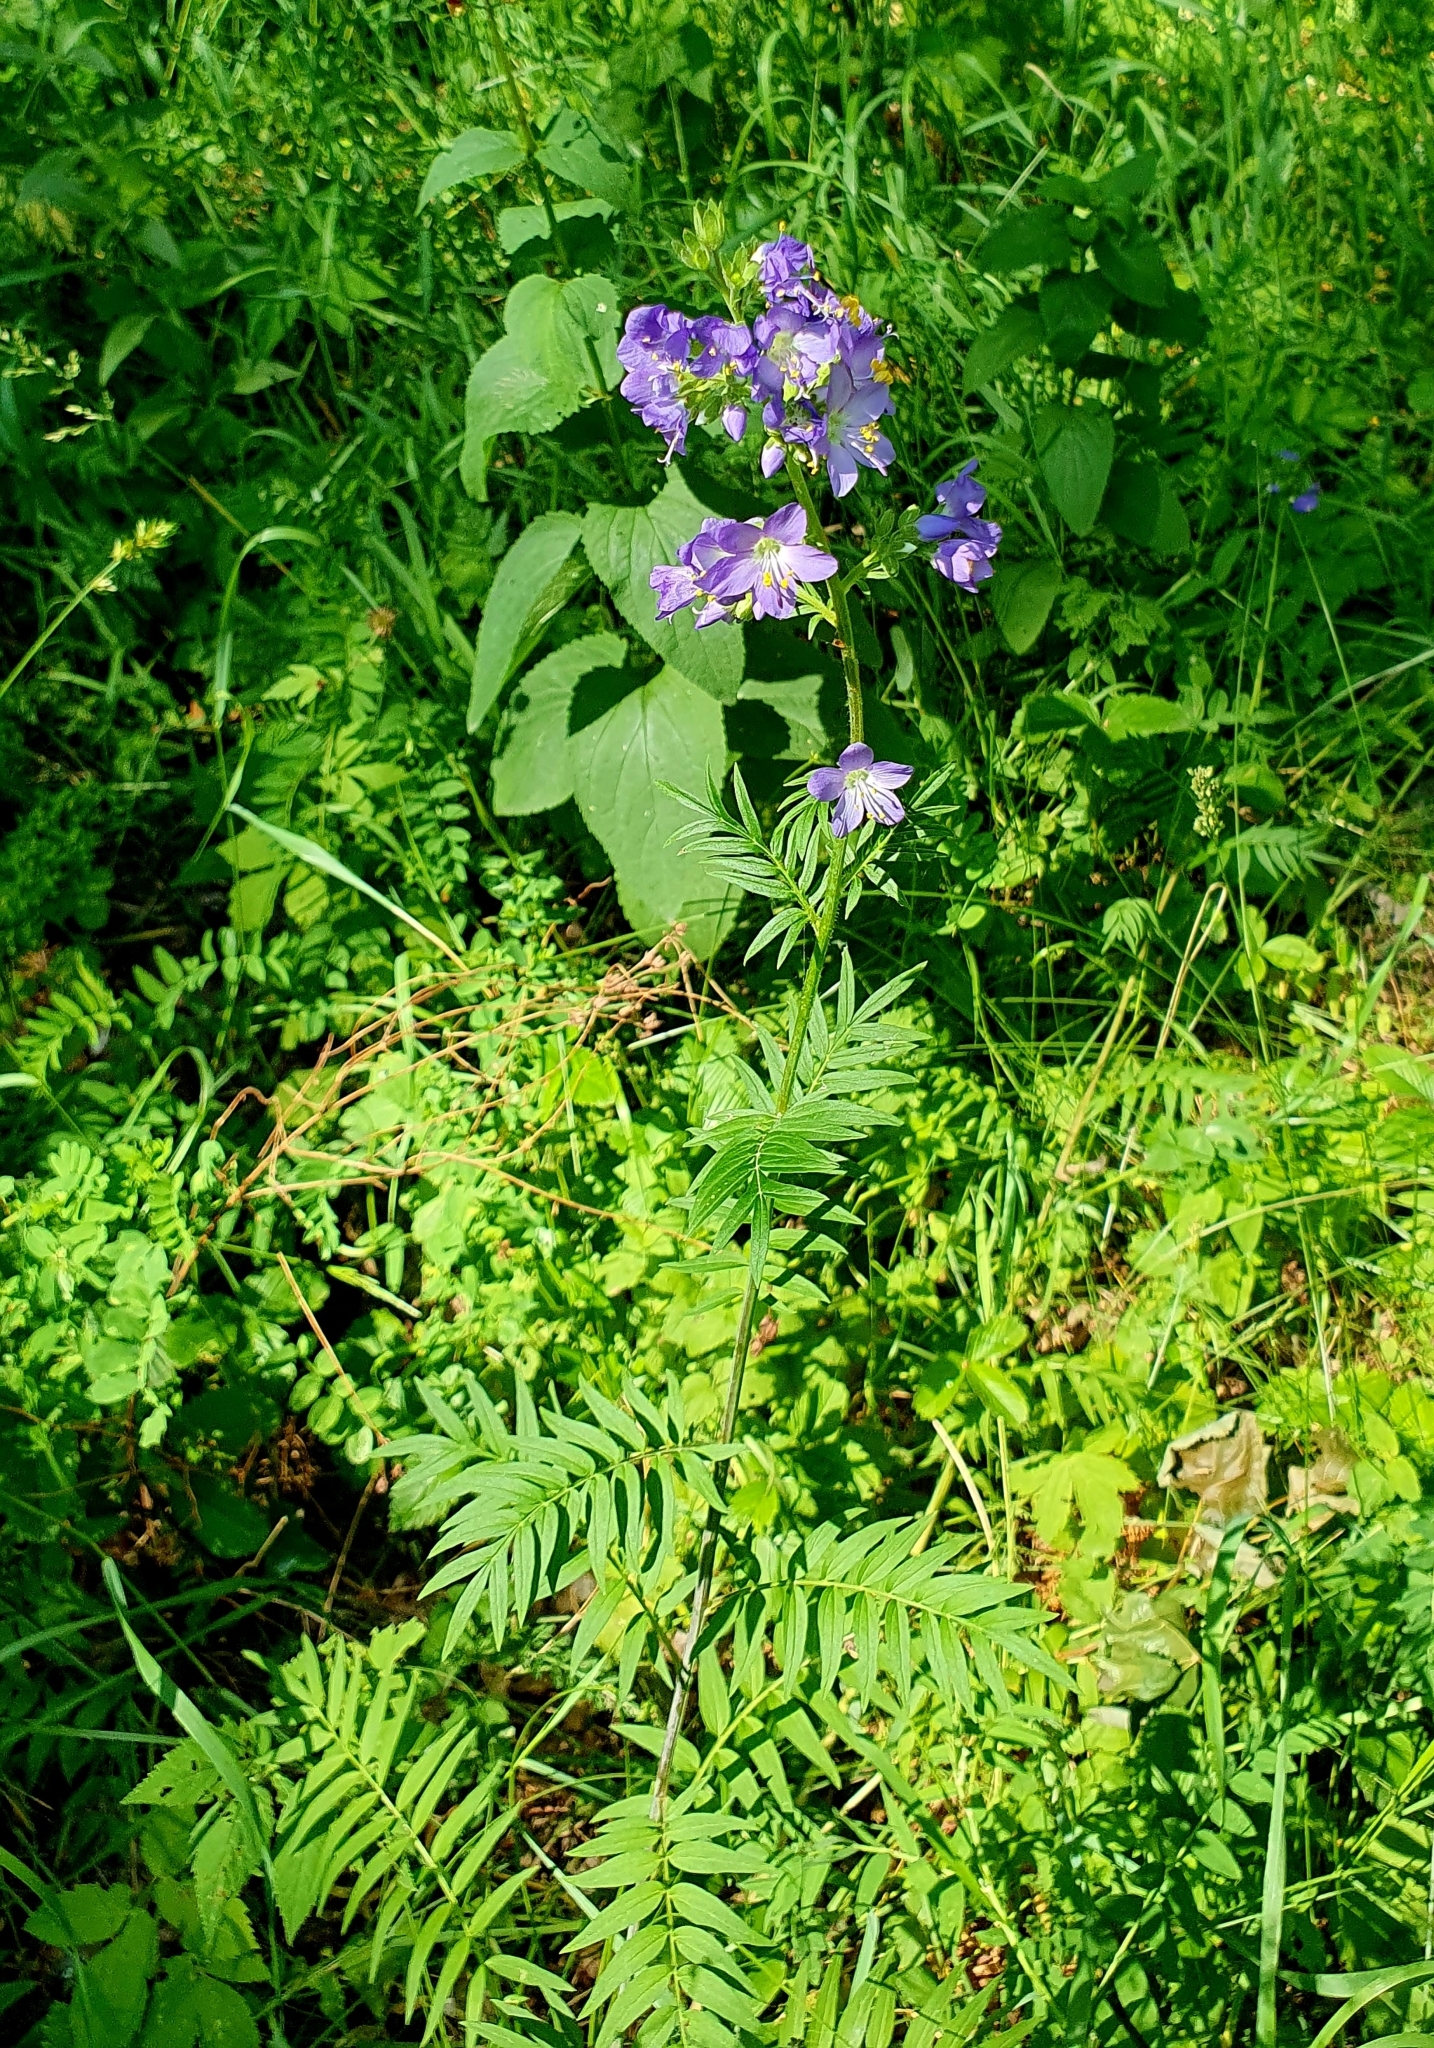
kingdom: Plantae
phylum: Tracheophyta
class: Magnoliopsida
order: Ericales
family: Polemoniaceae
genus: Polemonium
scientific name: Polemonium caeruleum
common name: Jacob's-ladder
